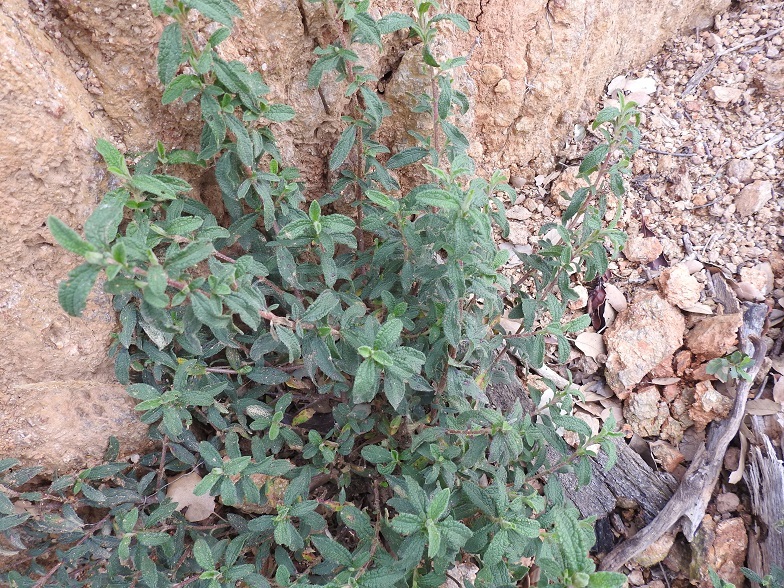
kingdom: Plantae
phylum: Tracheophyta
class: Magnoliopsida
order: Malvales
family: Cistaceae
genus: Cistus
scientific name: Cistus salviifolius
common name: Salvia cistus
